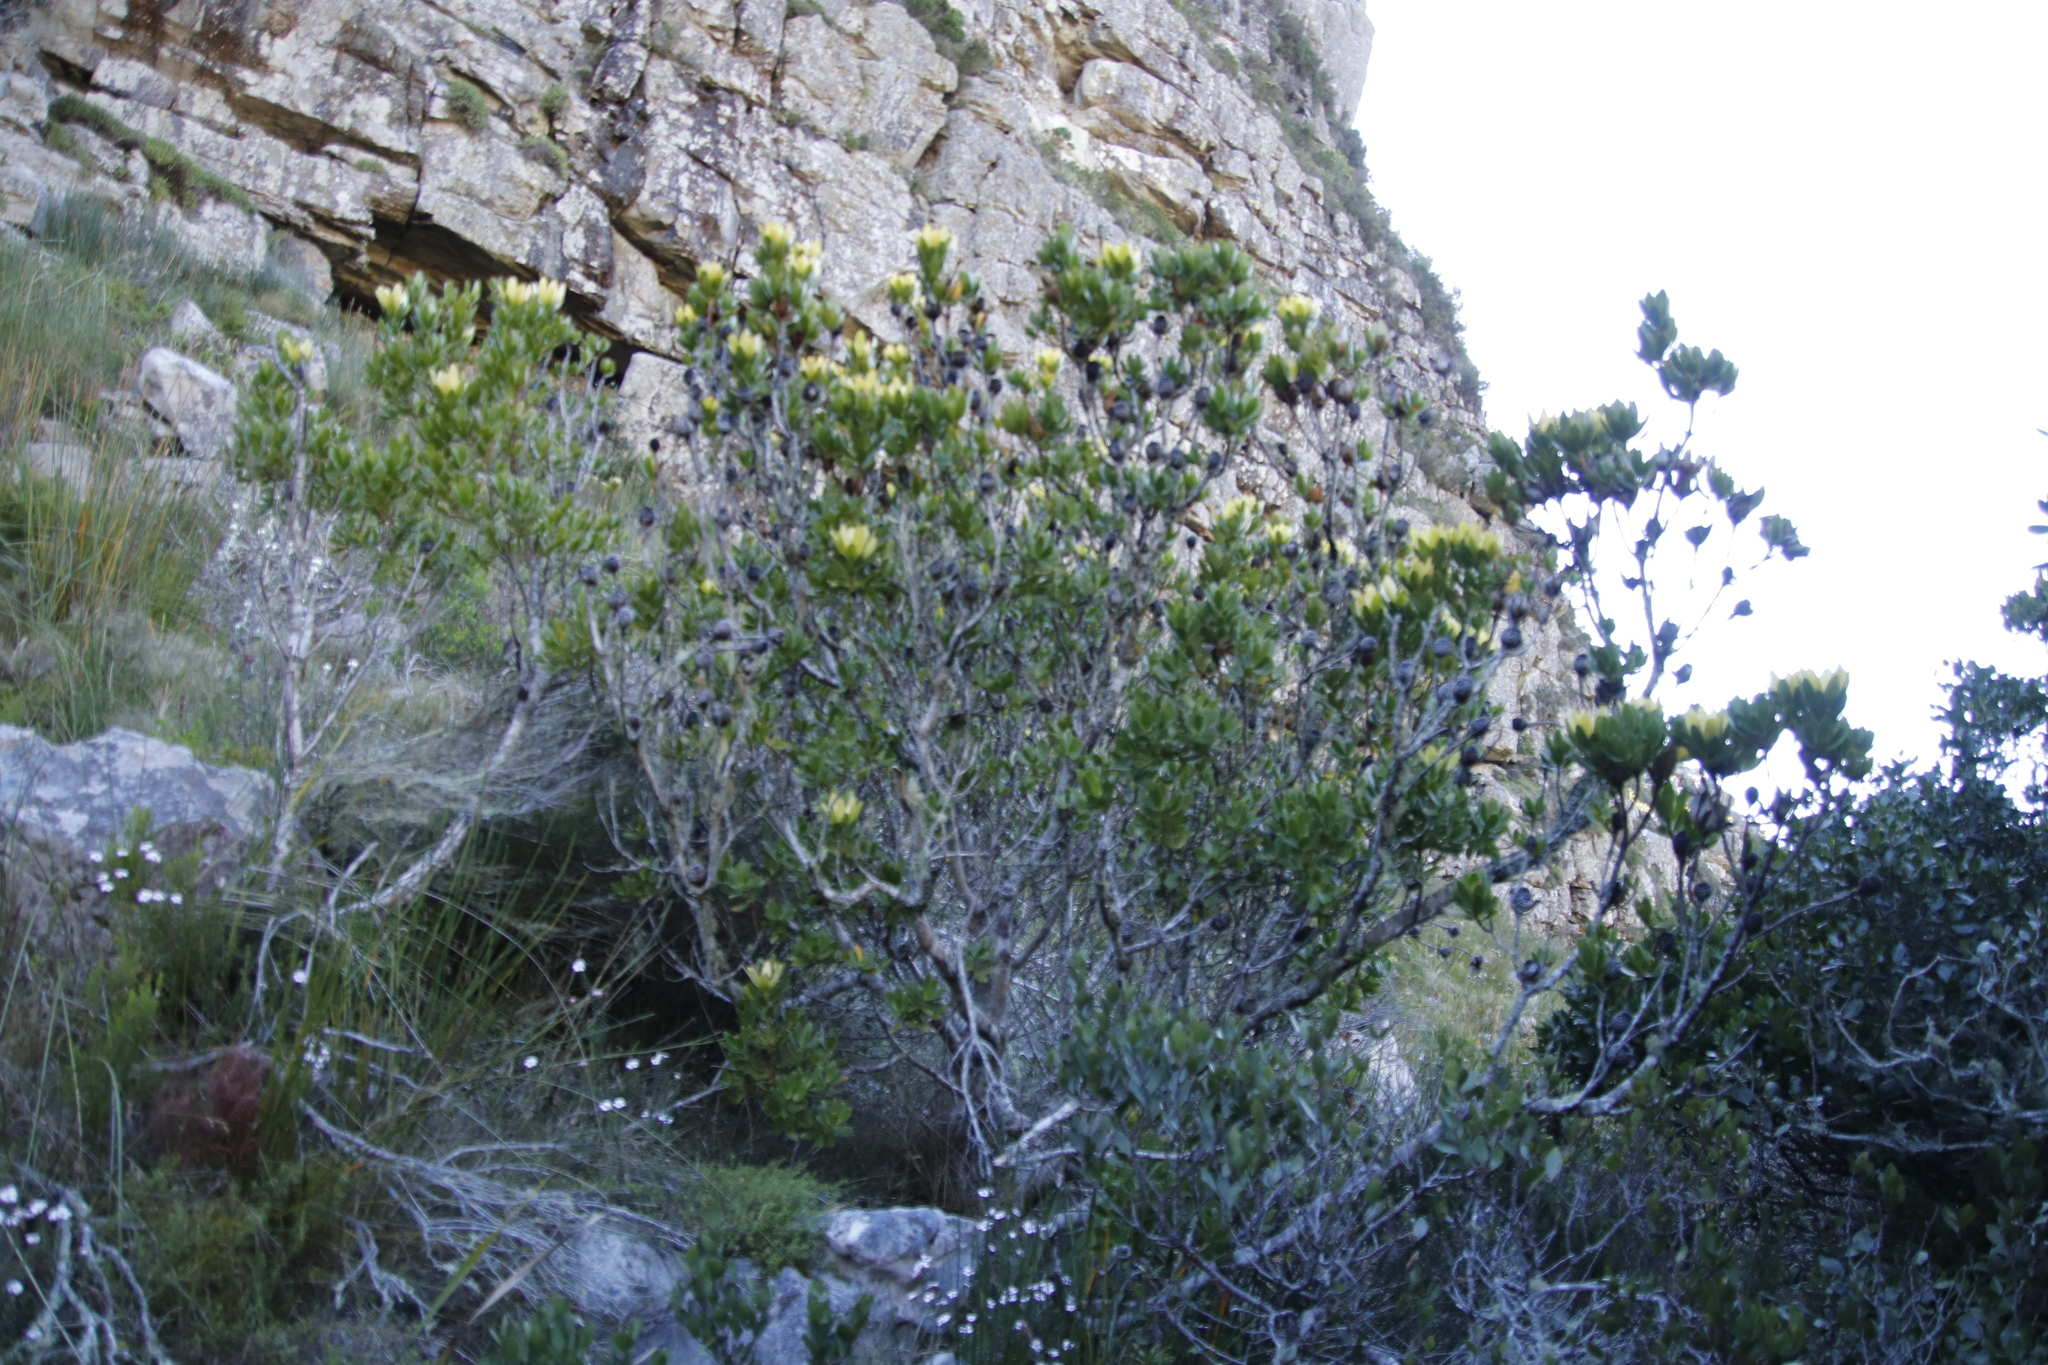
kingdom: Plantae
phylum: Tracheophyta
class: Magnoliopsida
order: Proteales
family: Proteaceae
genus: Leucadendron
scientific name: Leucadendron strobilinum
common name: Mountain rose
